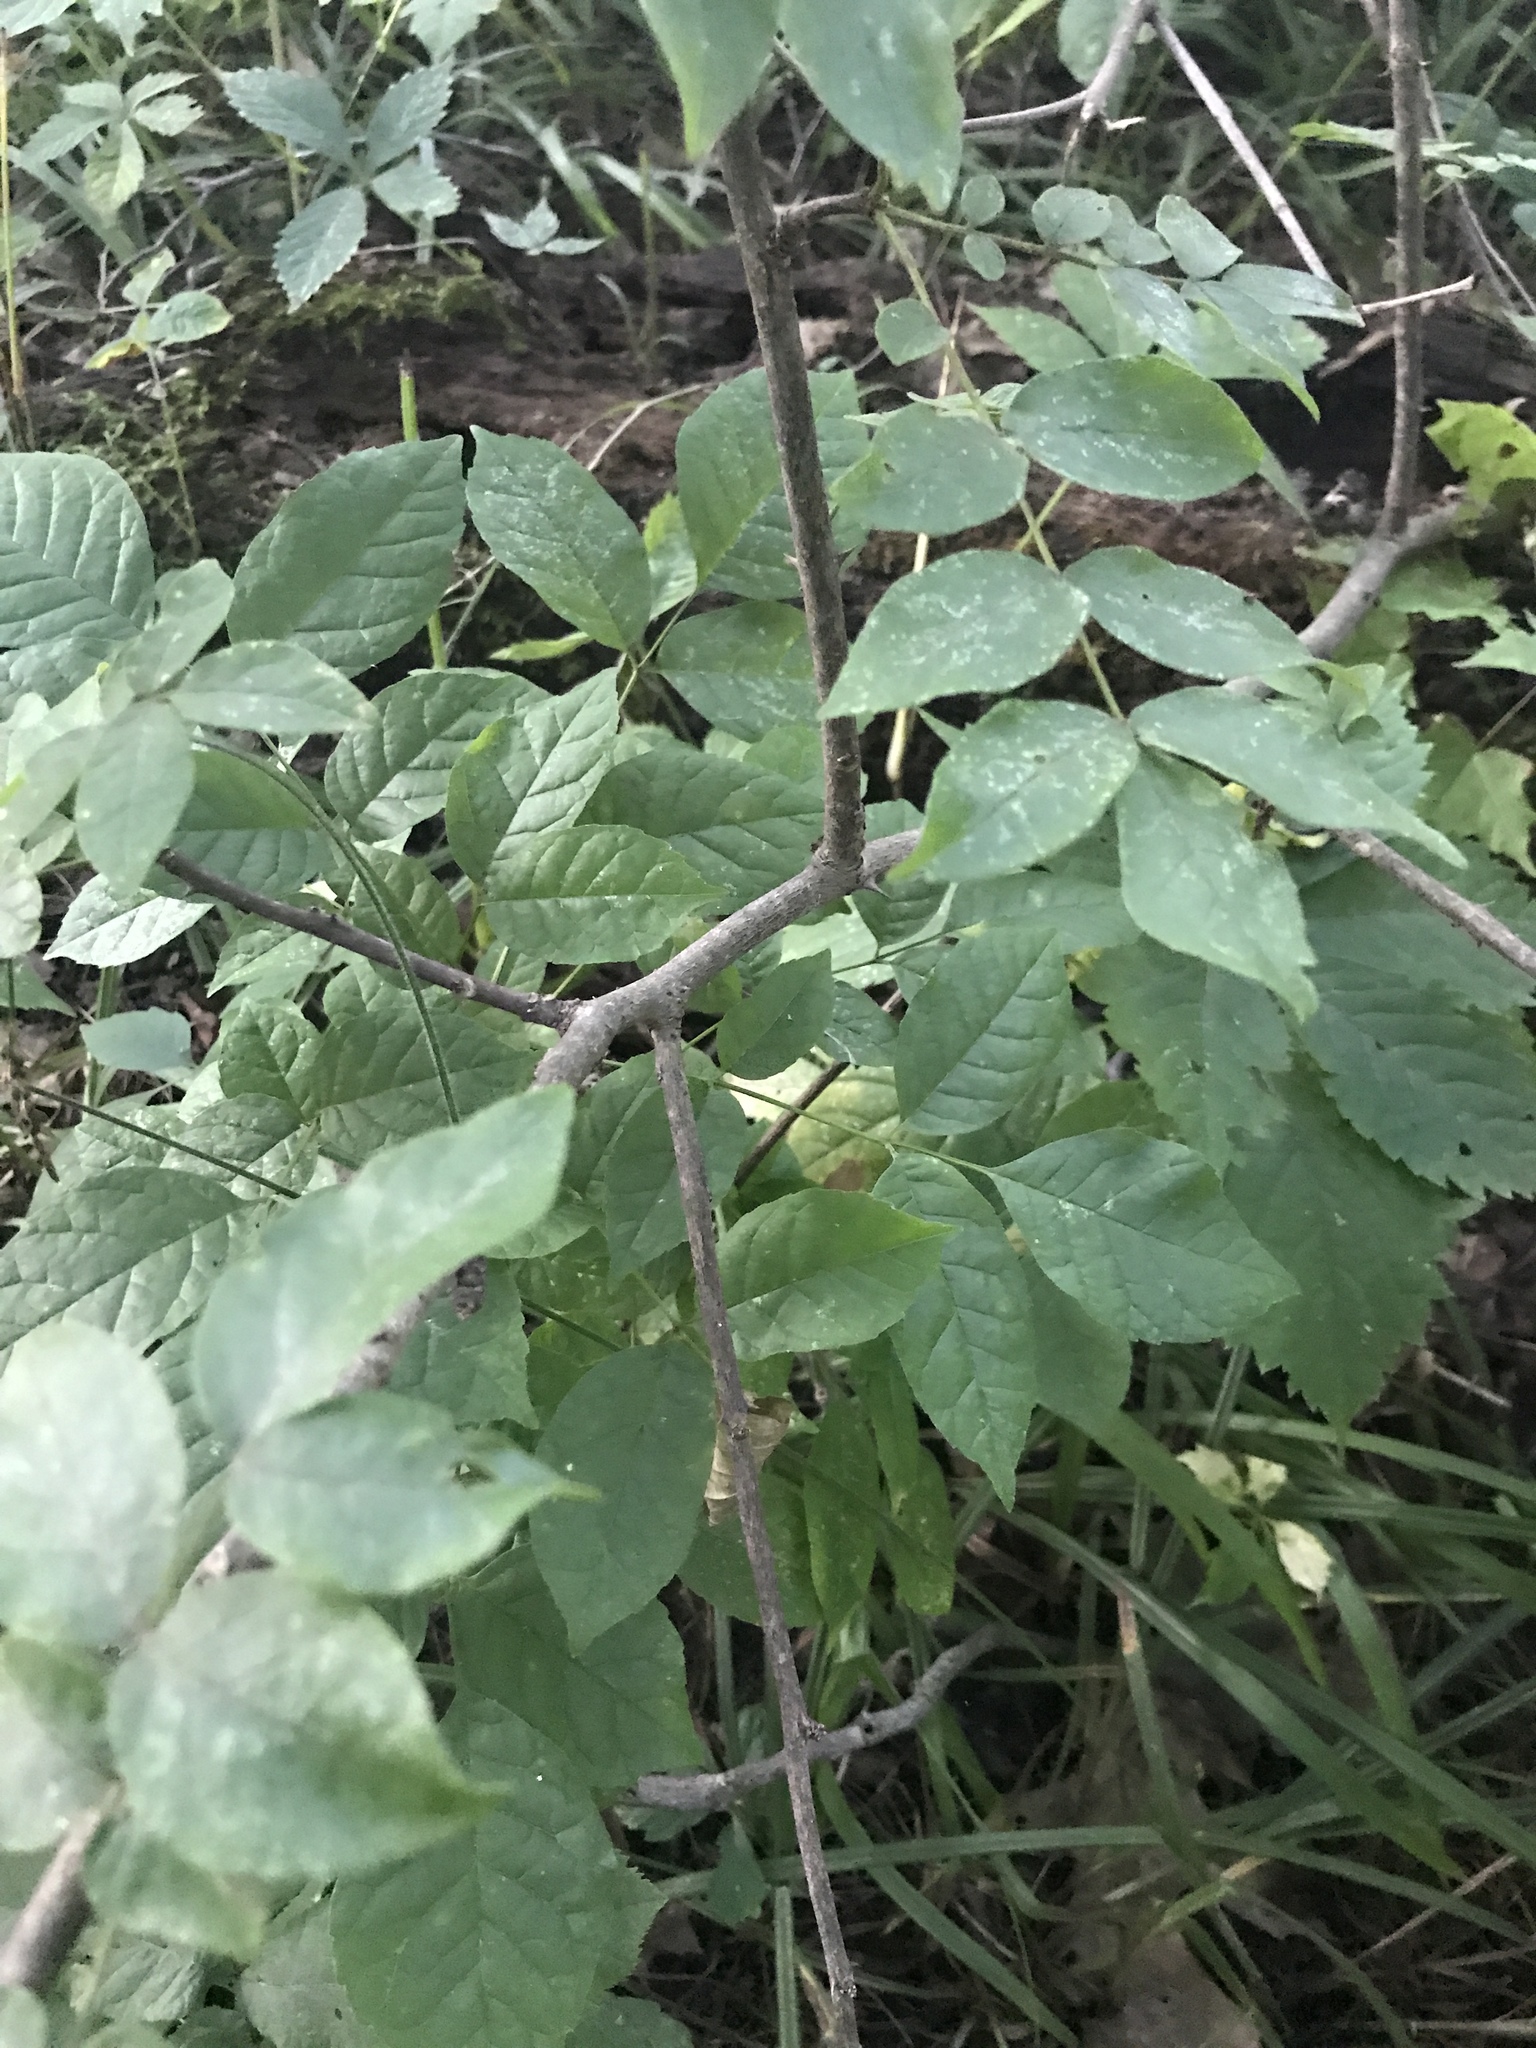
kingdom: Plantae
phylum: Tracheophyta
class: Magnoliopsida
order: Sapindales
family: Rutaceae
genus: Zanthoxylum
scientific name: Zanthoxylum americanum
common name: Northern prickly-ash
